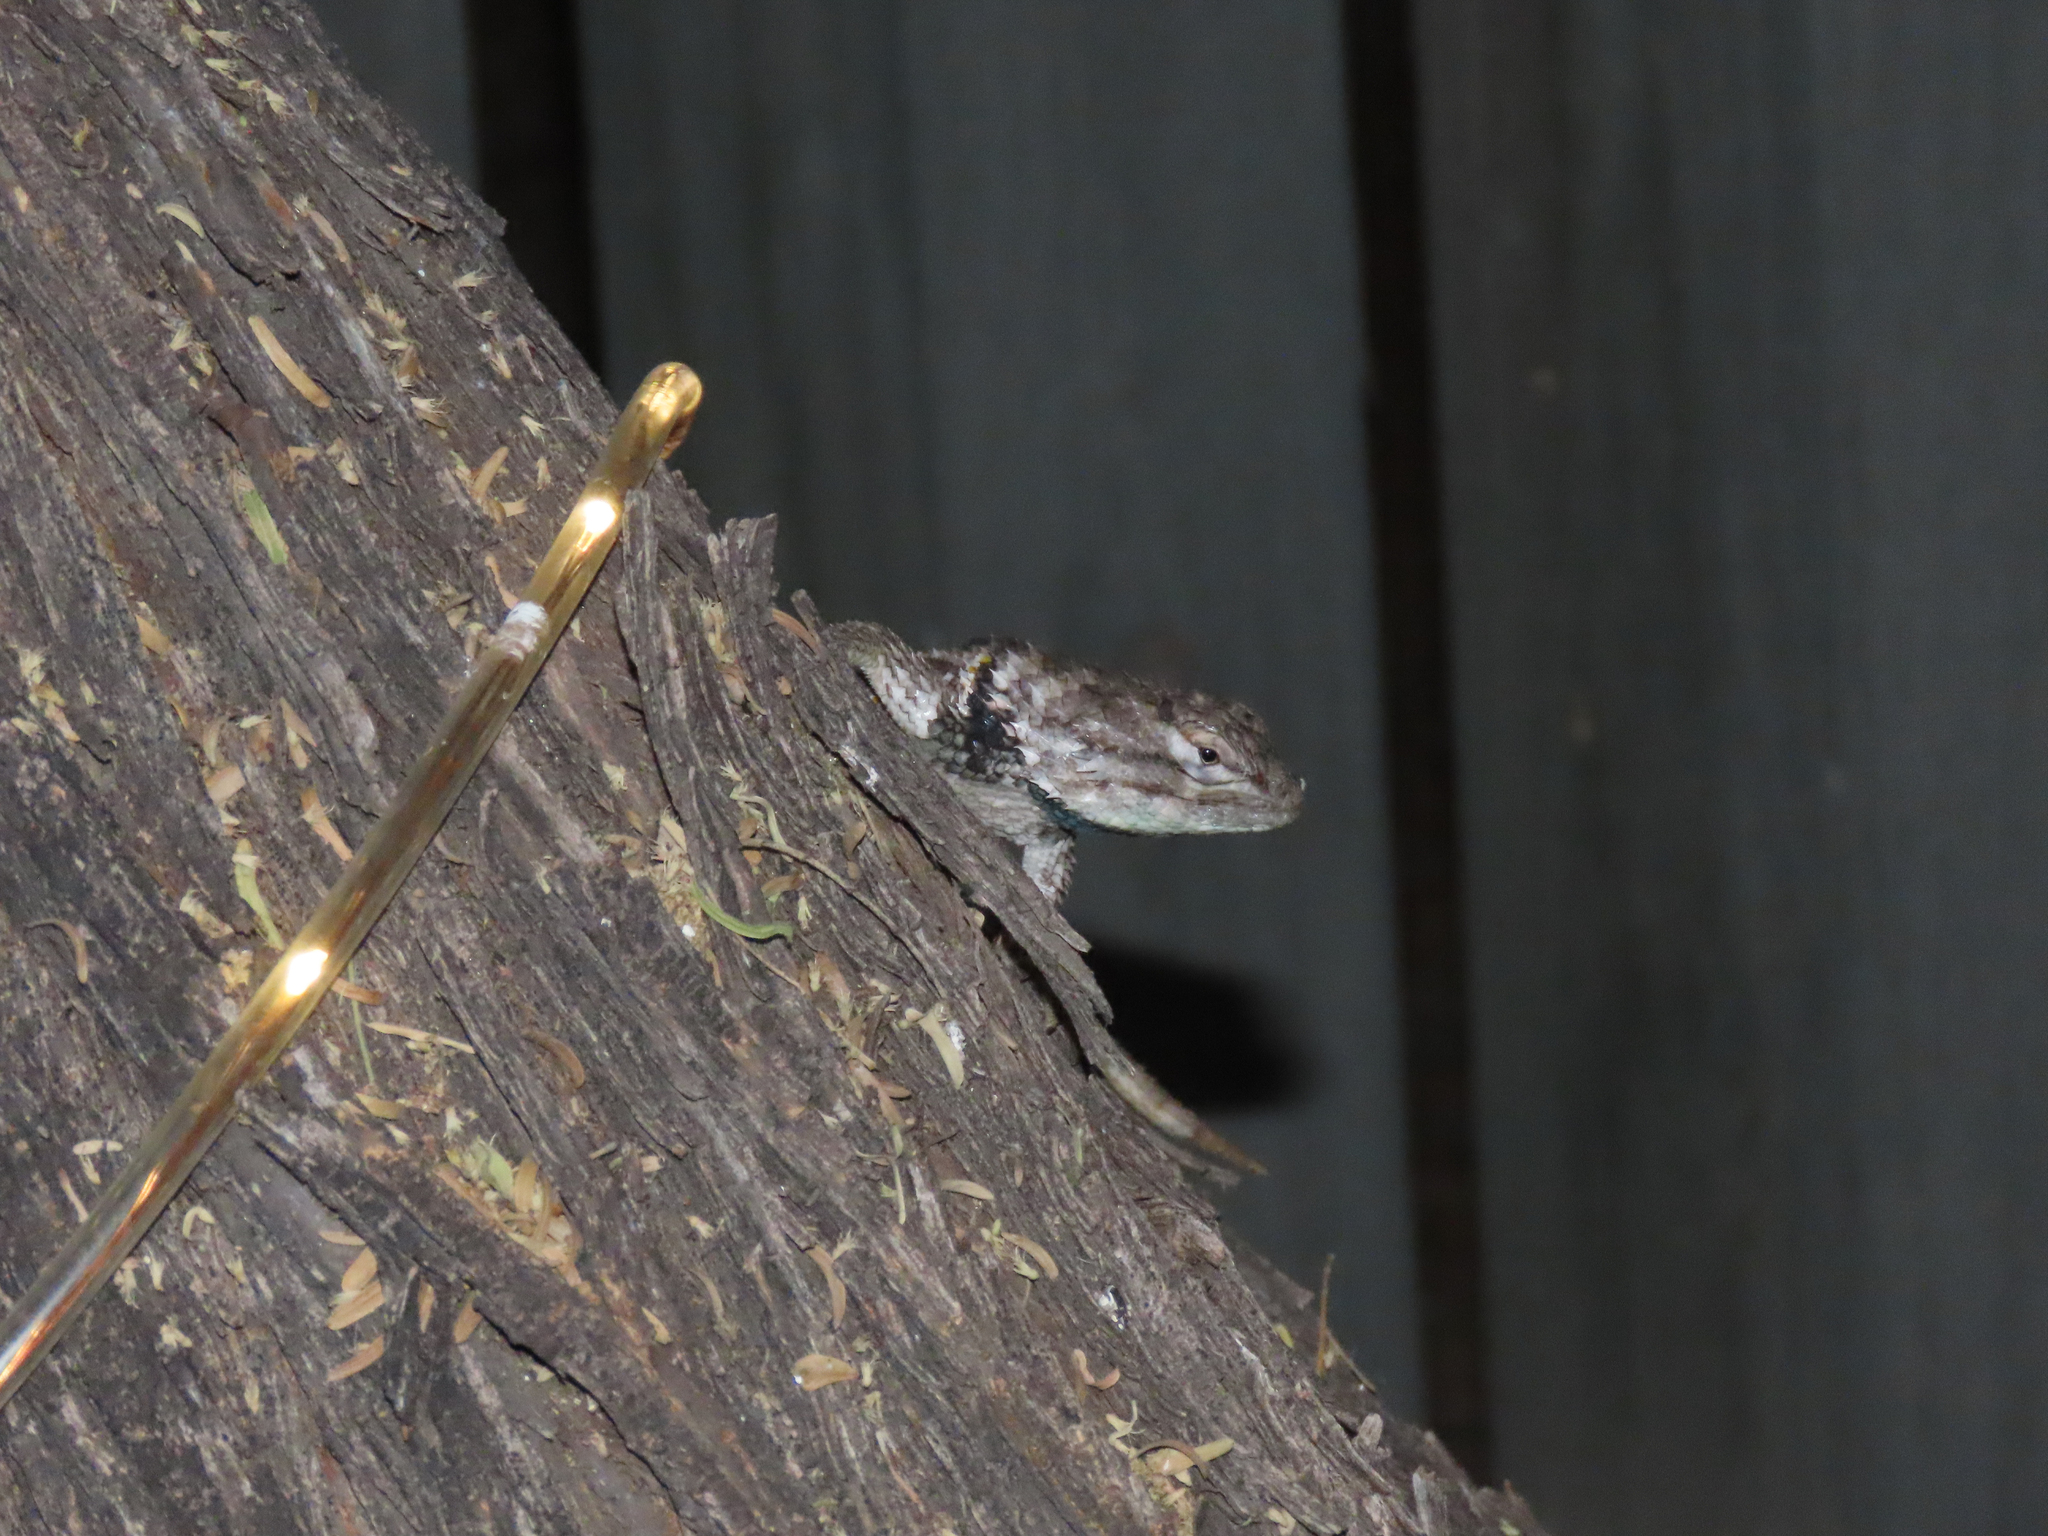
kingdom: Animalia
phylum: Chordata
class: Squamata
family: Phrynosomatidae
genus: Sceloporus
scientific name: Sceloporus magister
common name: Desert spiny lizard
